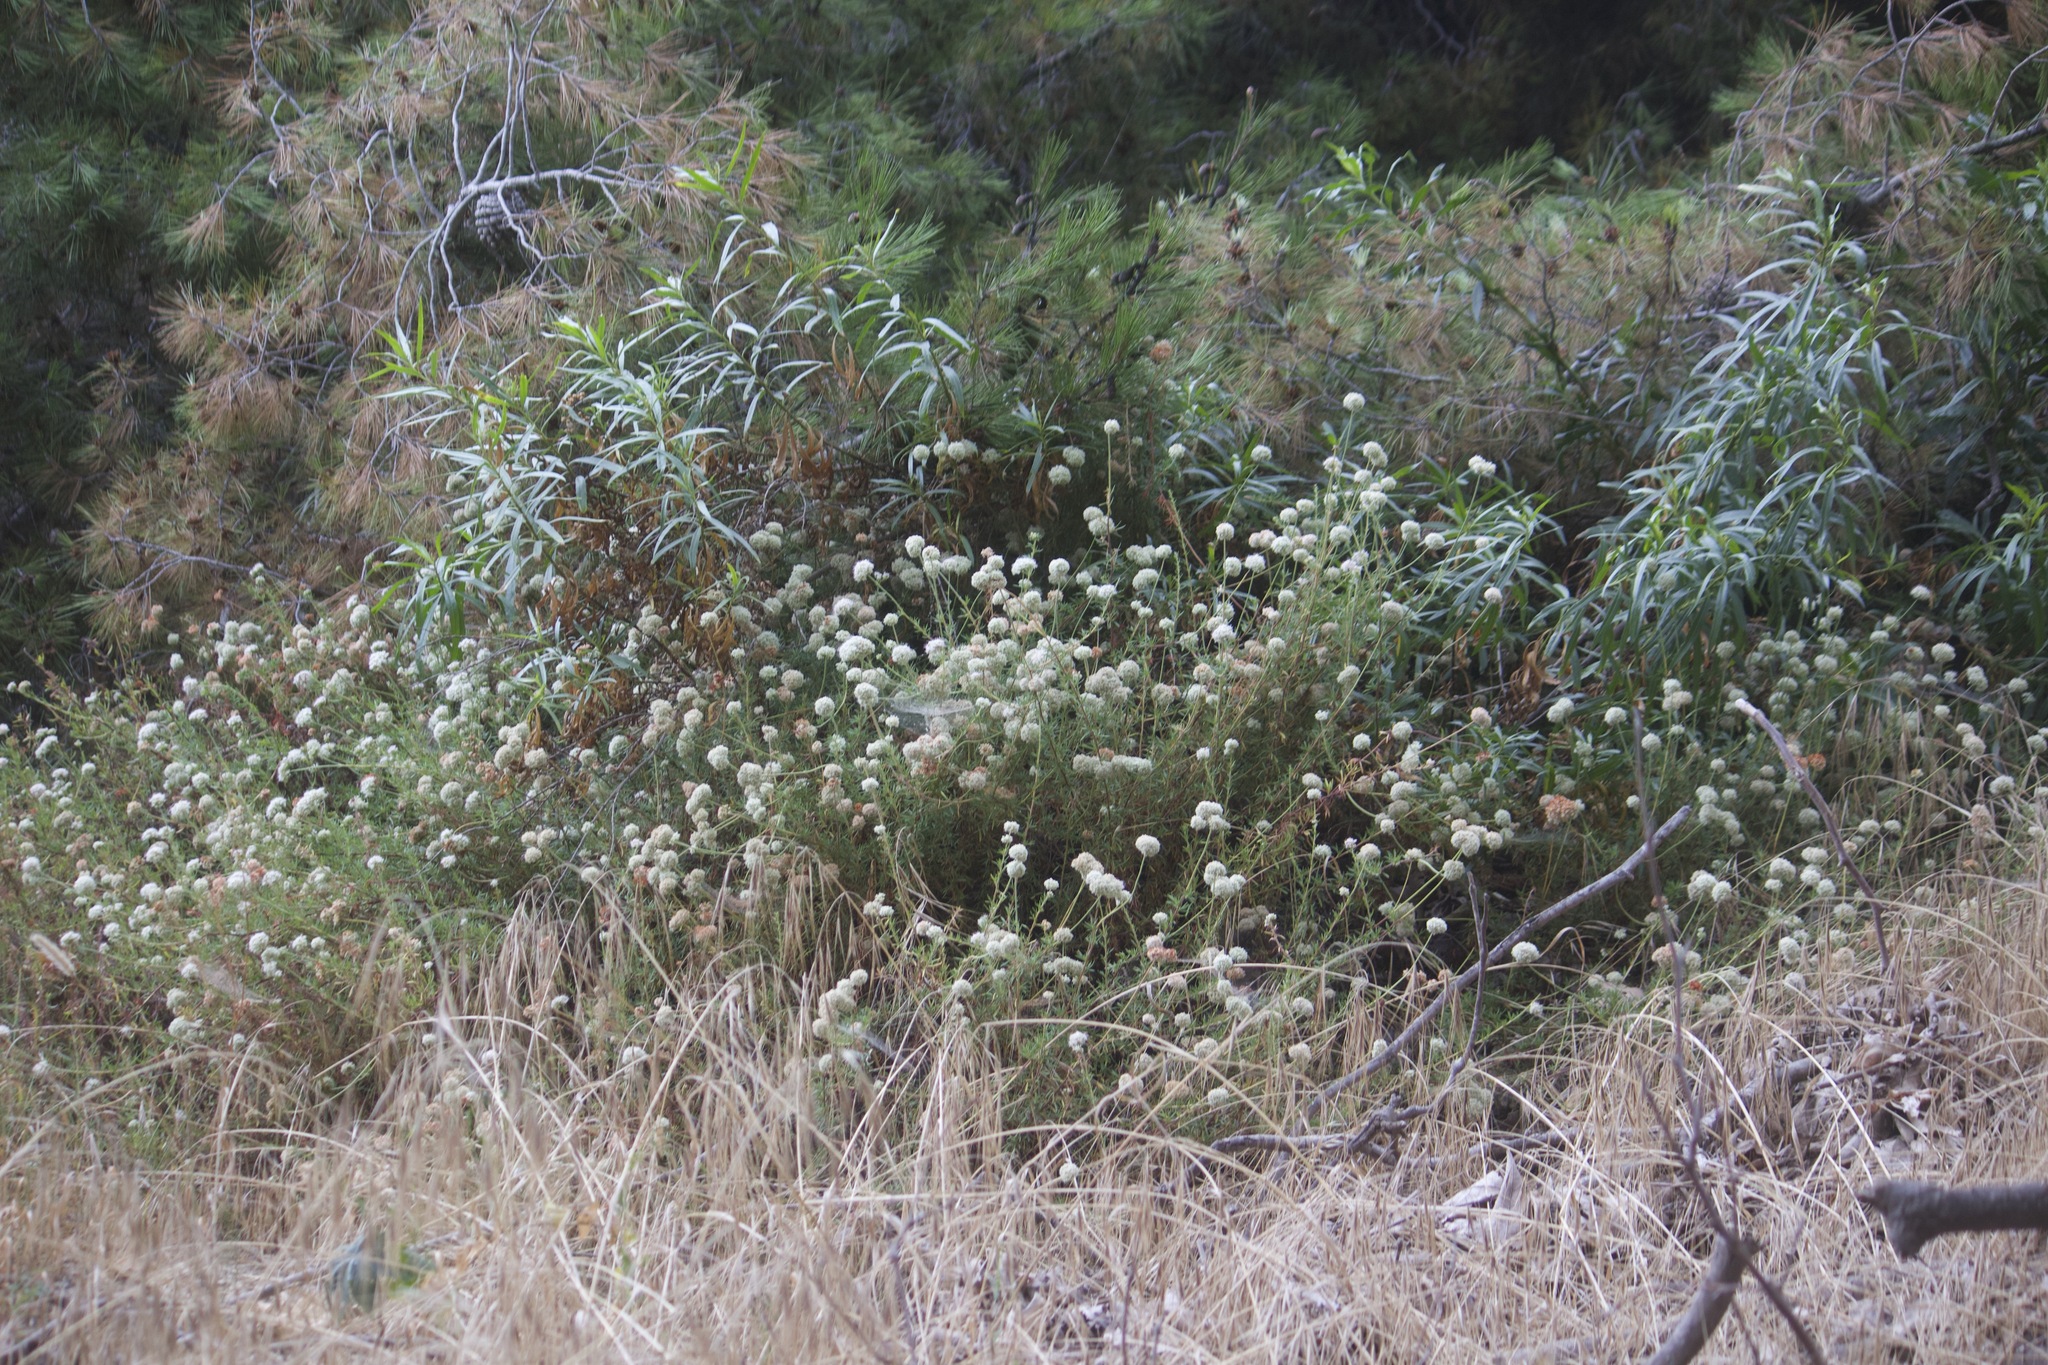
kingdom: Plantae
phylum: Tracheophyta
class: Magnoliopsida
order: Caryophyllales
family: Polygonaceae
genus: Eriogonum
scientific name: Eriogonum fasciculatum
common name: California wild buckwheat
